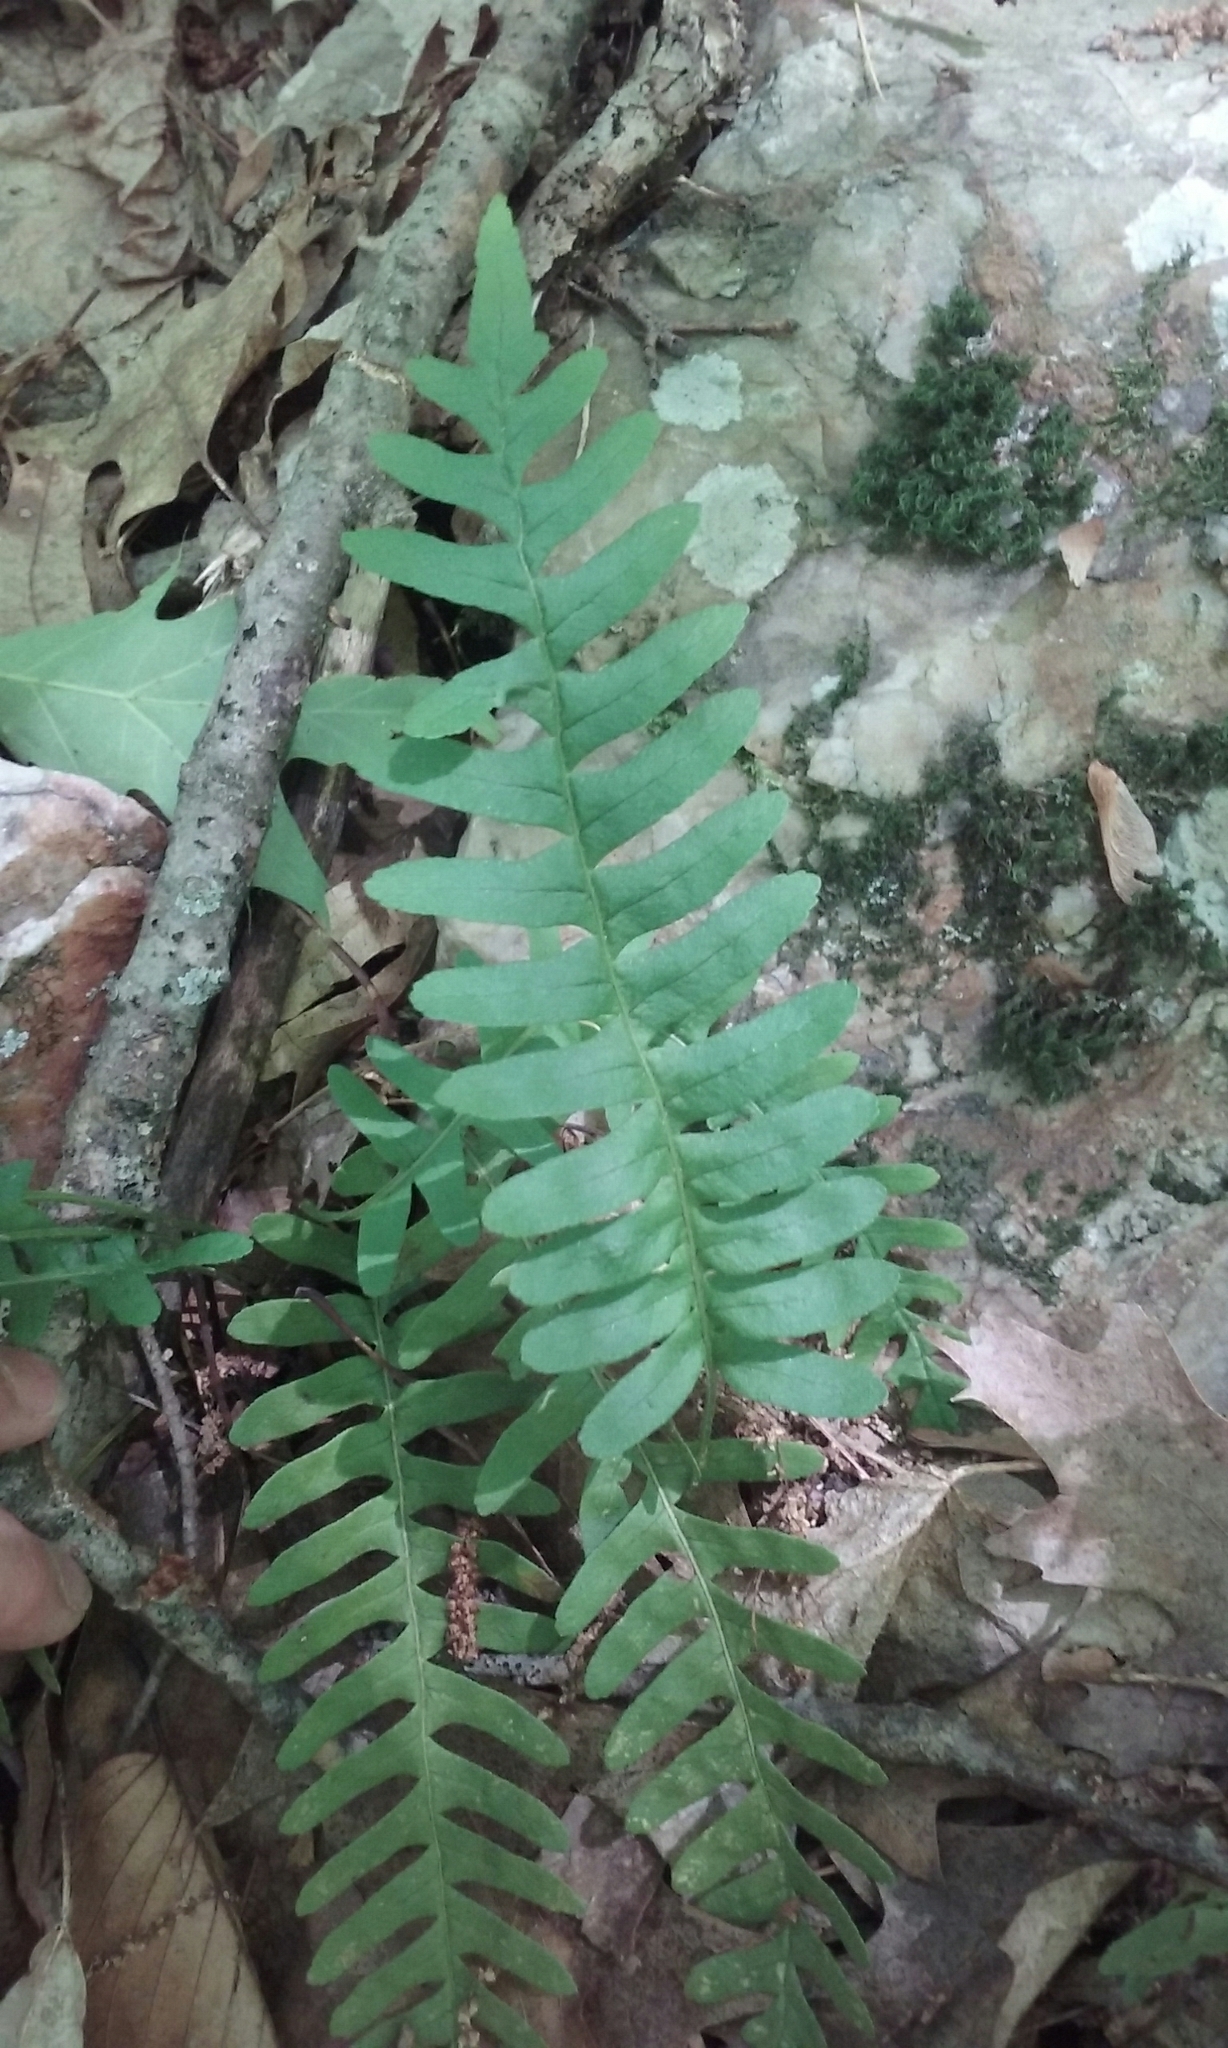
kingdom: Plantae
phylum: Tracheophyta
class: Polypodiopsida
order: Polypodiales
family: Polypodiaceae
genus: Polypodium
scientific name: Polypodium virginianum
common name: American wall fern
